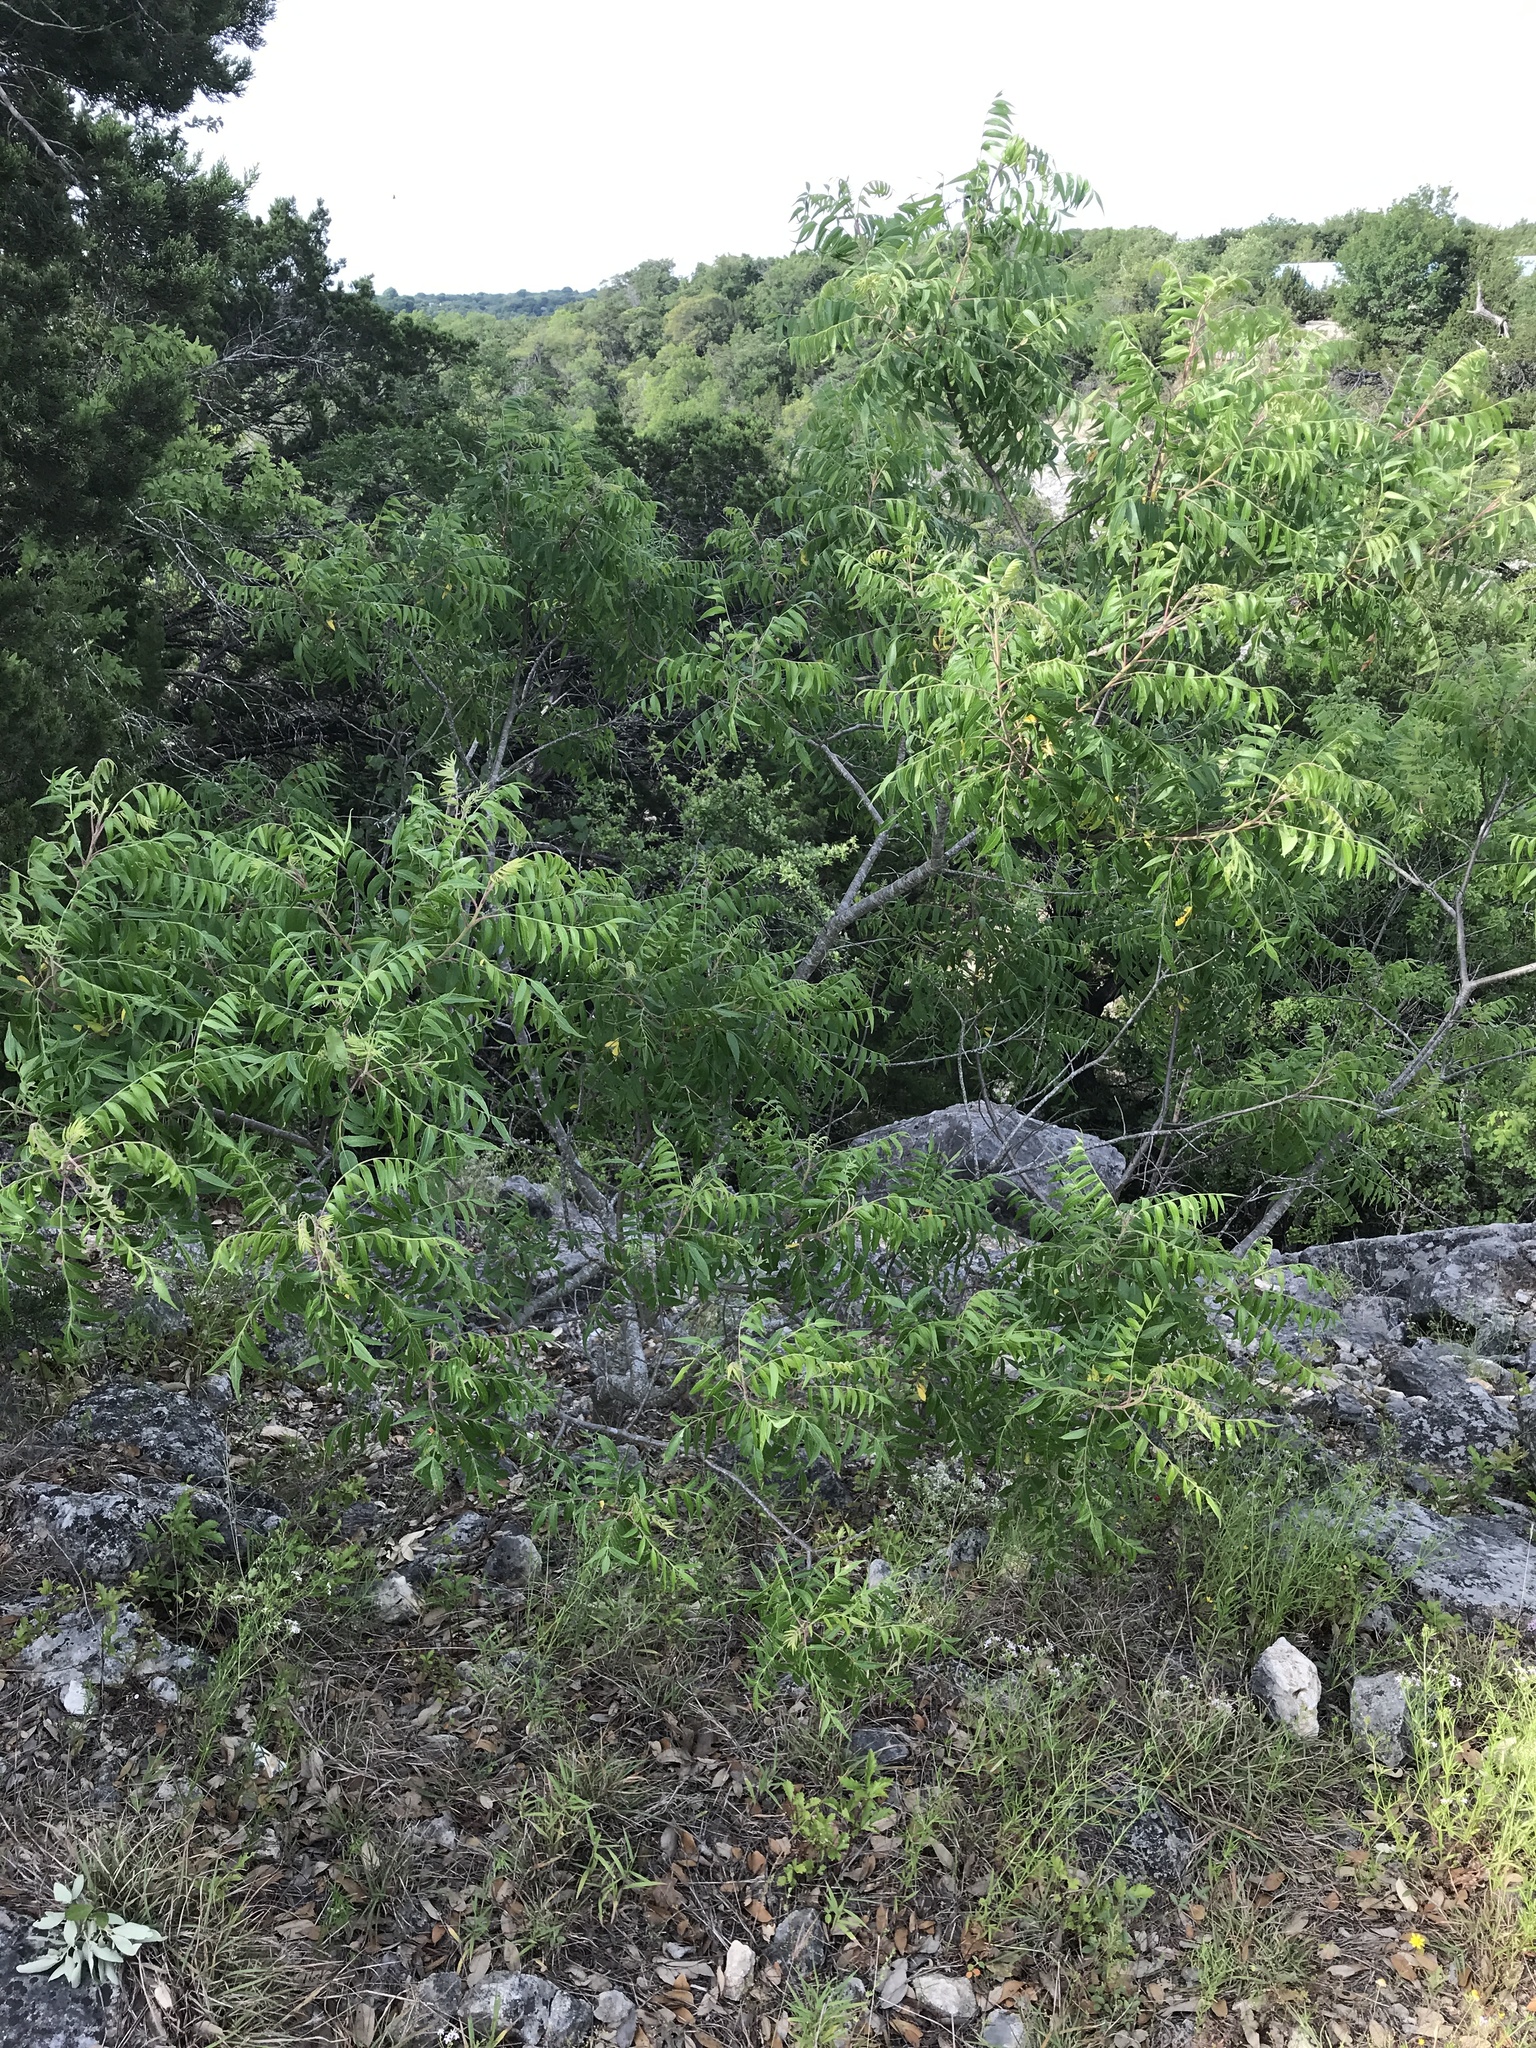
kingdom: Plantae
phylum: Tracheophyta
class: Magnoliopsida
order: Sapindales
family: Anacardiaceae
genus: Rhus
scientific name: Rhus lanceolata
